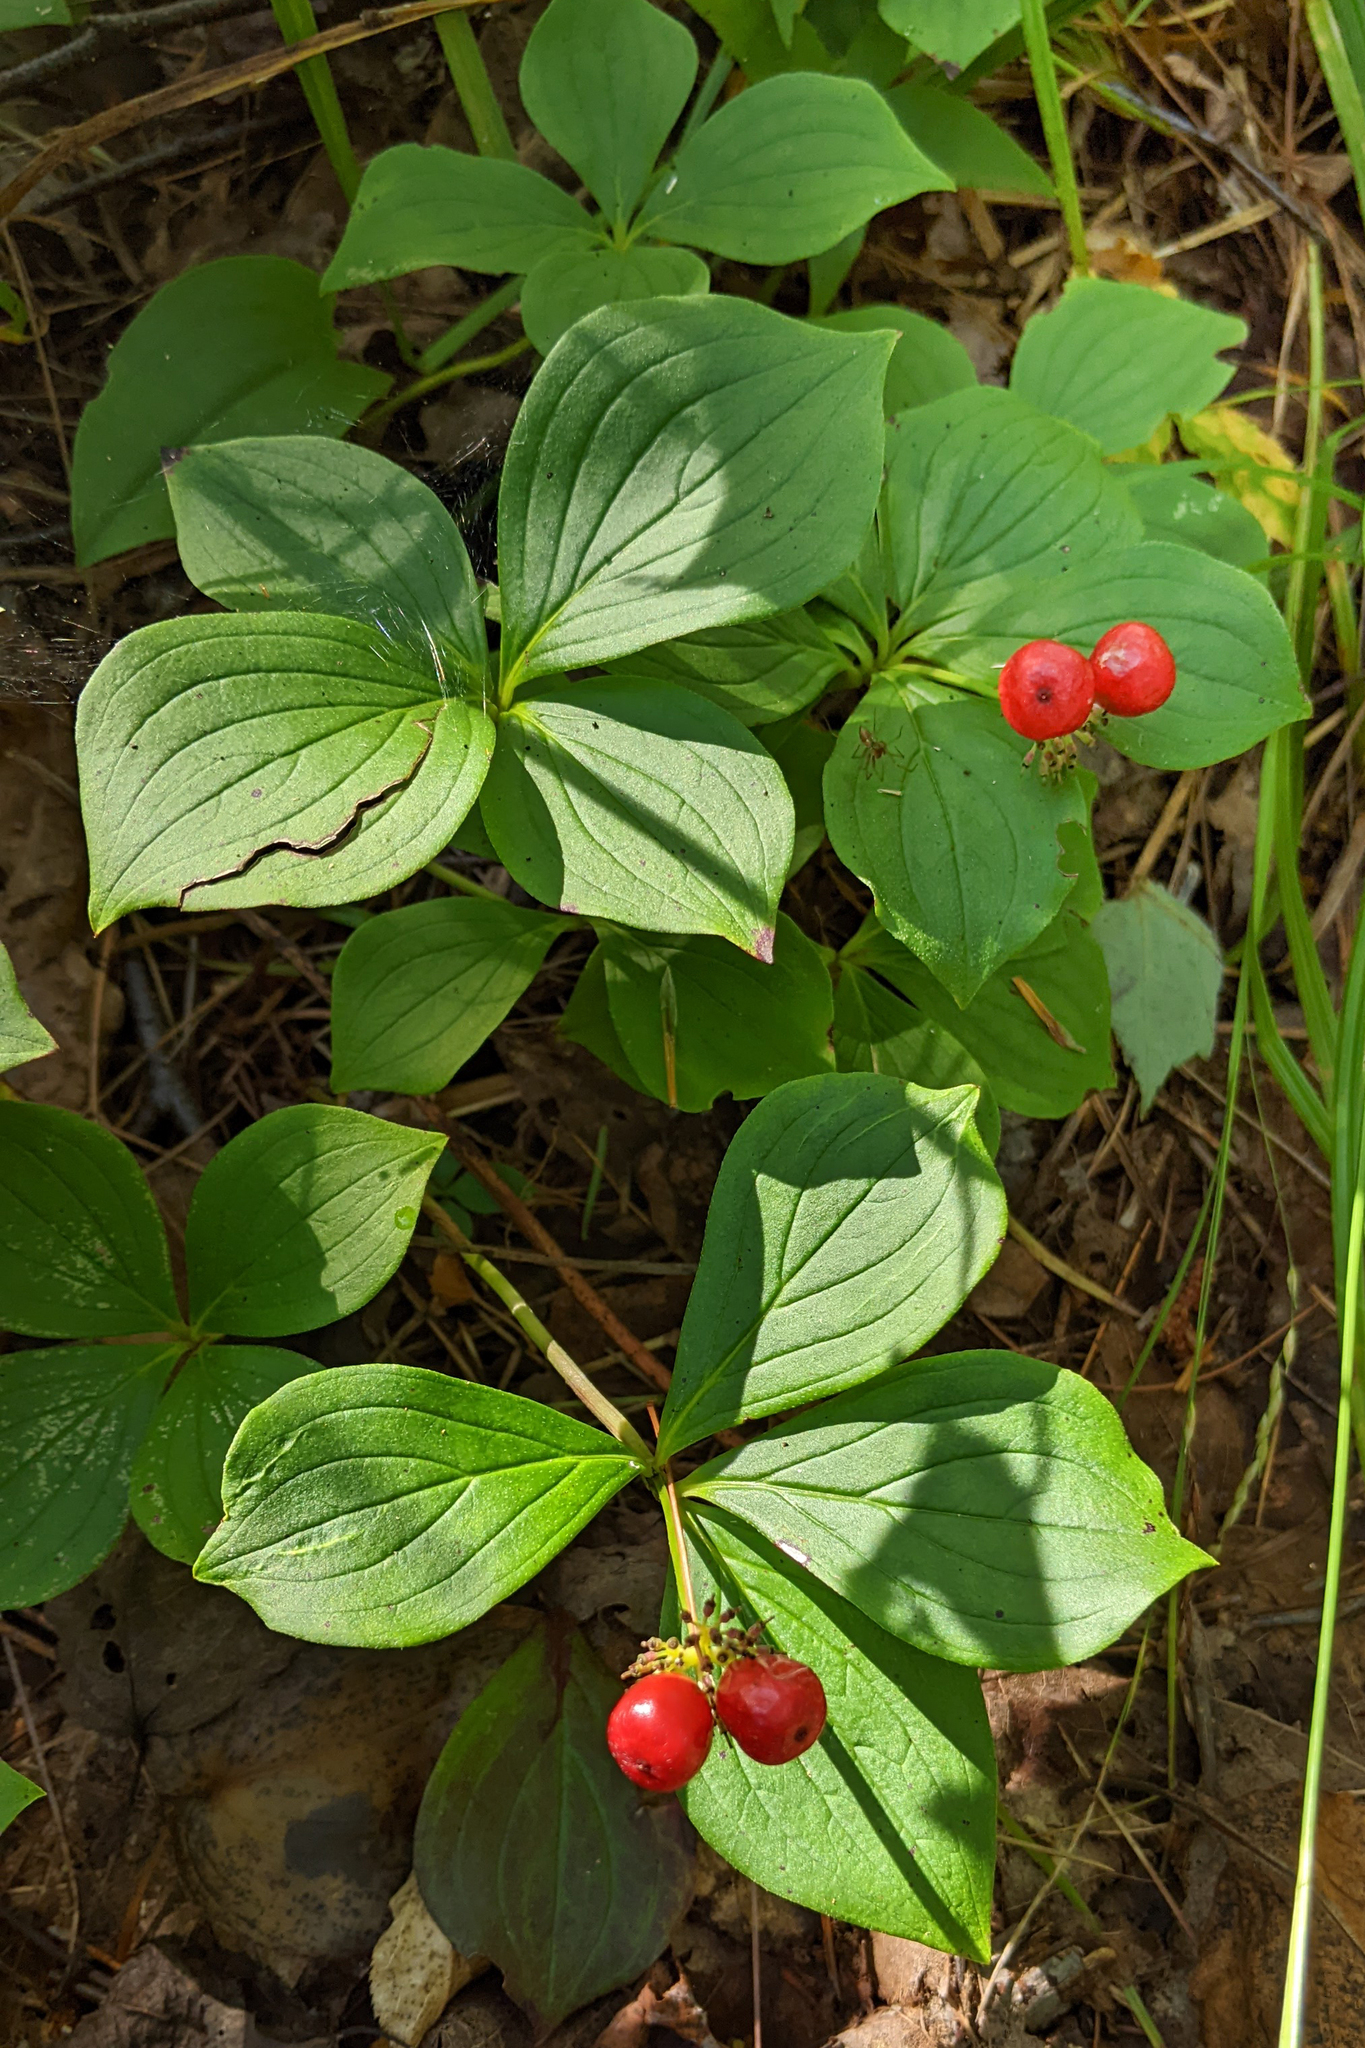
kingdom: Plantae
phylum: Tracheophyta
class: Magnoliopsida
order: Cornales
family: Cornaceae
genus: Cornus
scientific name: Cornus canadensis
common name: Creeping dogwood
